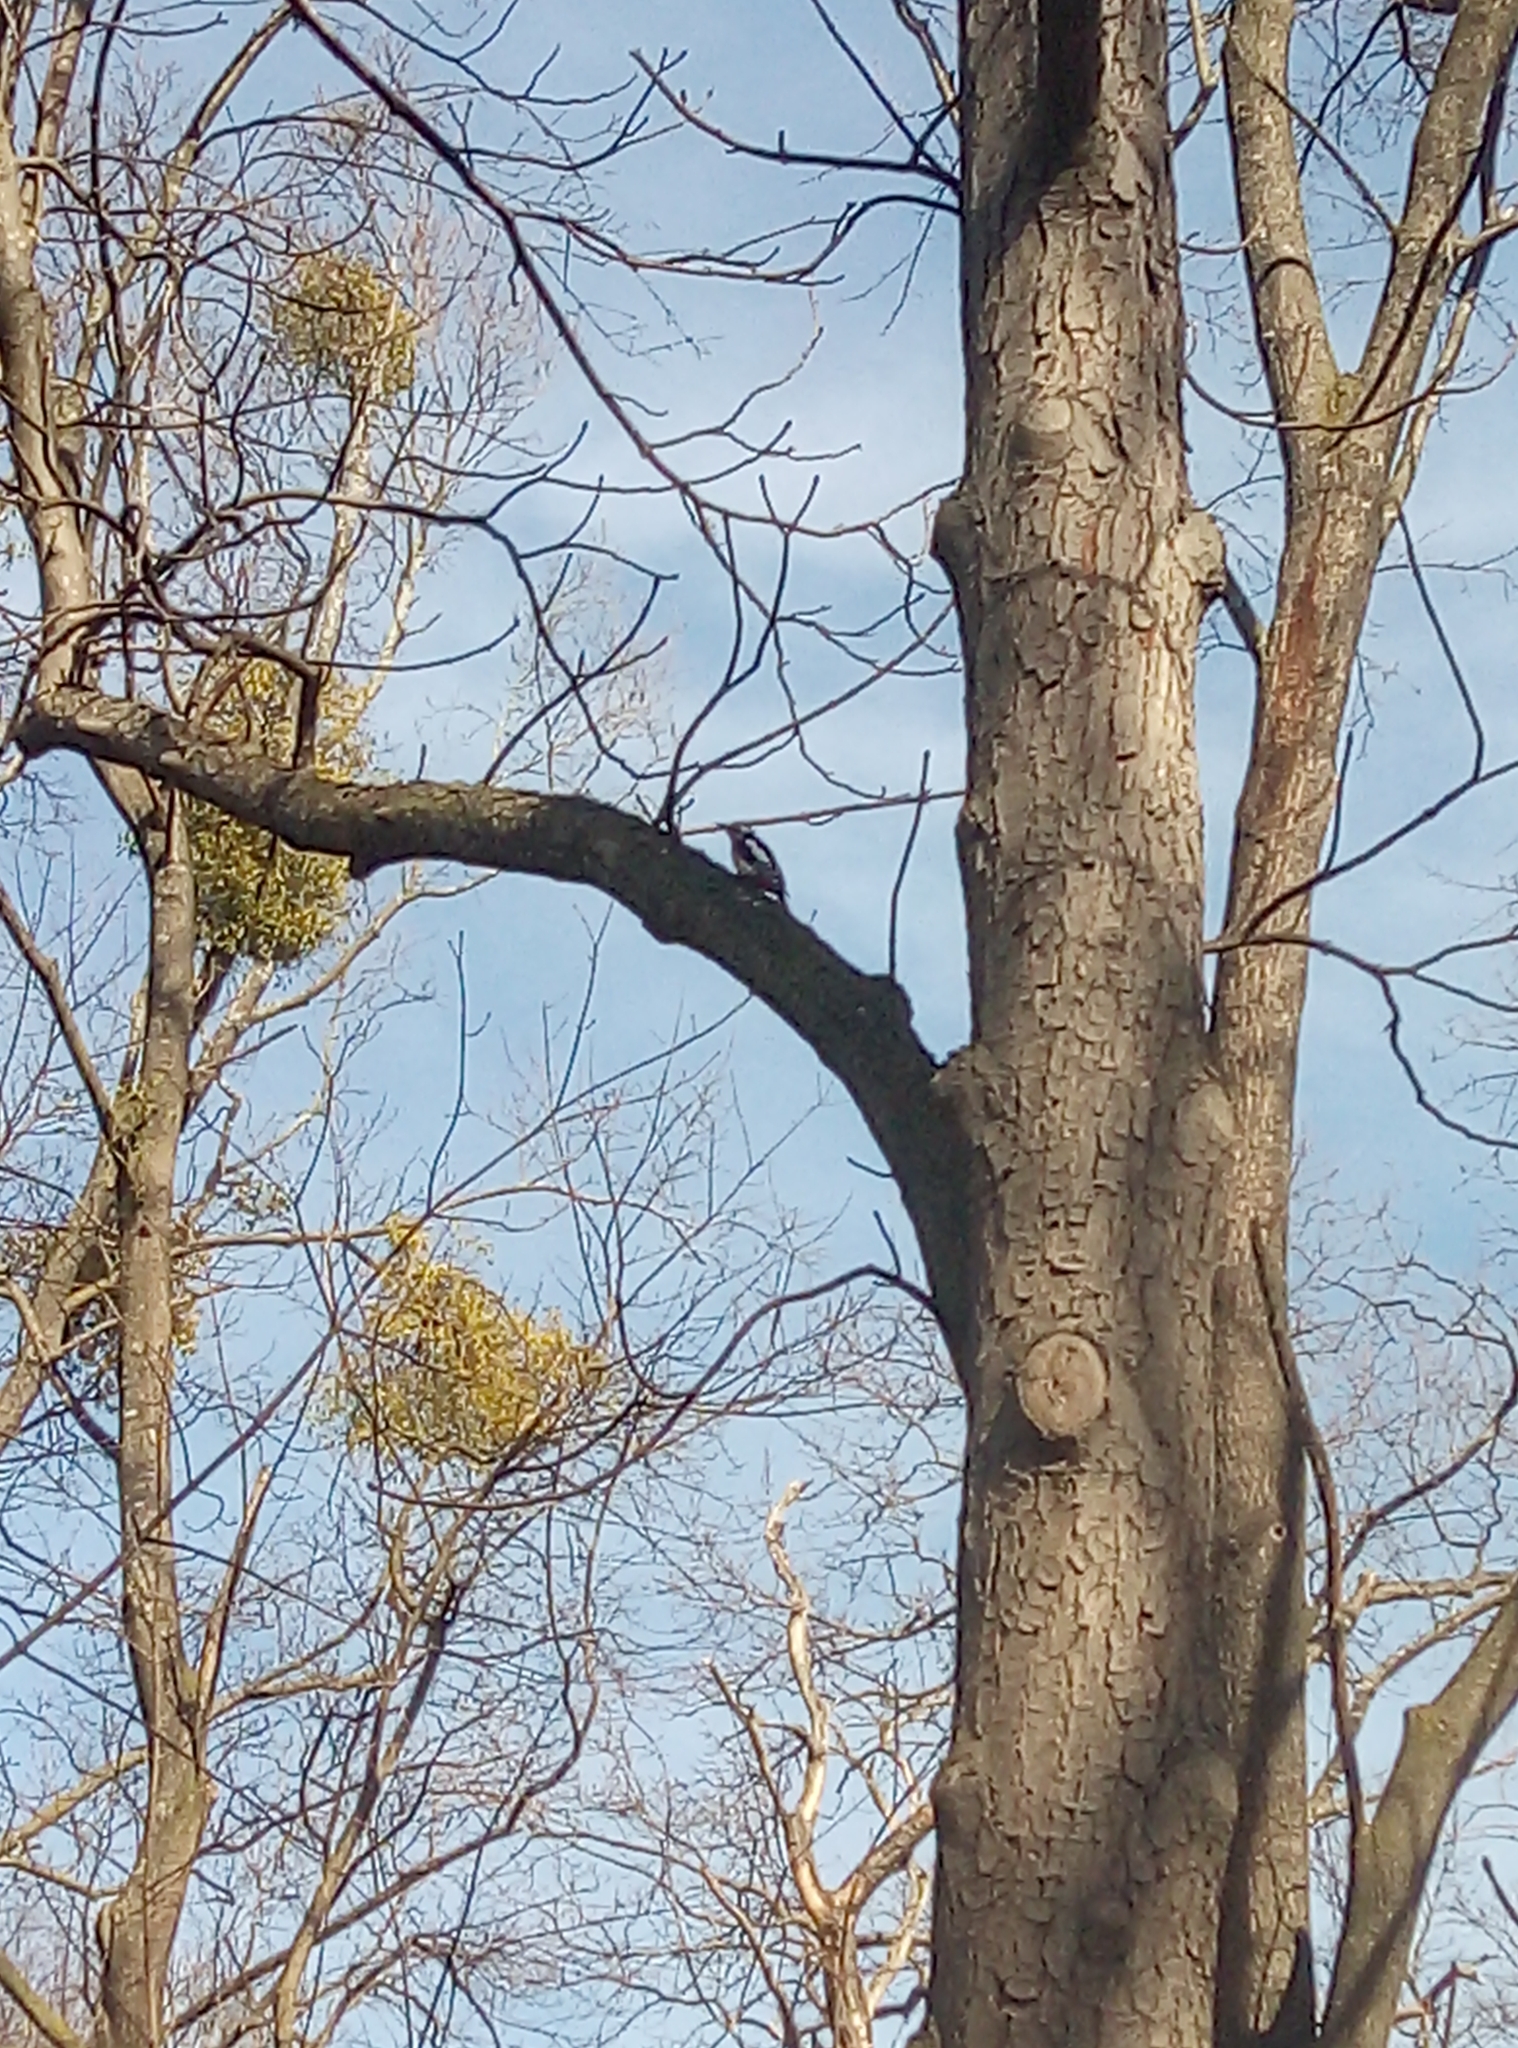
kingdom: Animalia
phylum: Chordata
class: Aves
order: Piciformes
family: Picidae
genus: Dendrocopos
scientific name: Dendrocopos major
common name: Great spotted woodpecker
